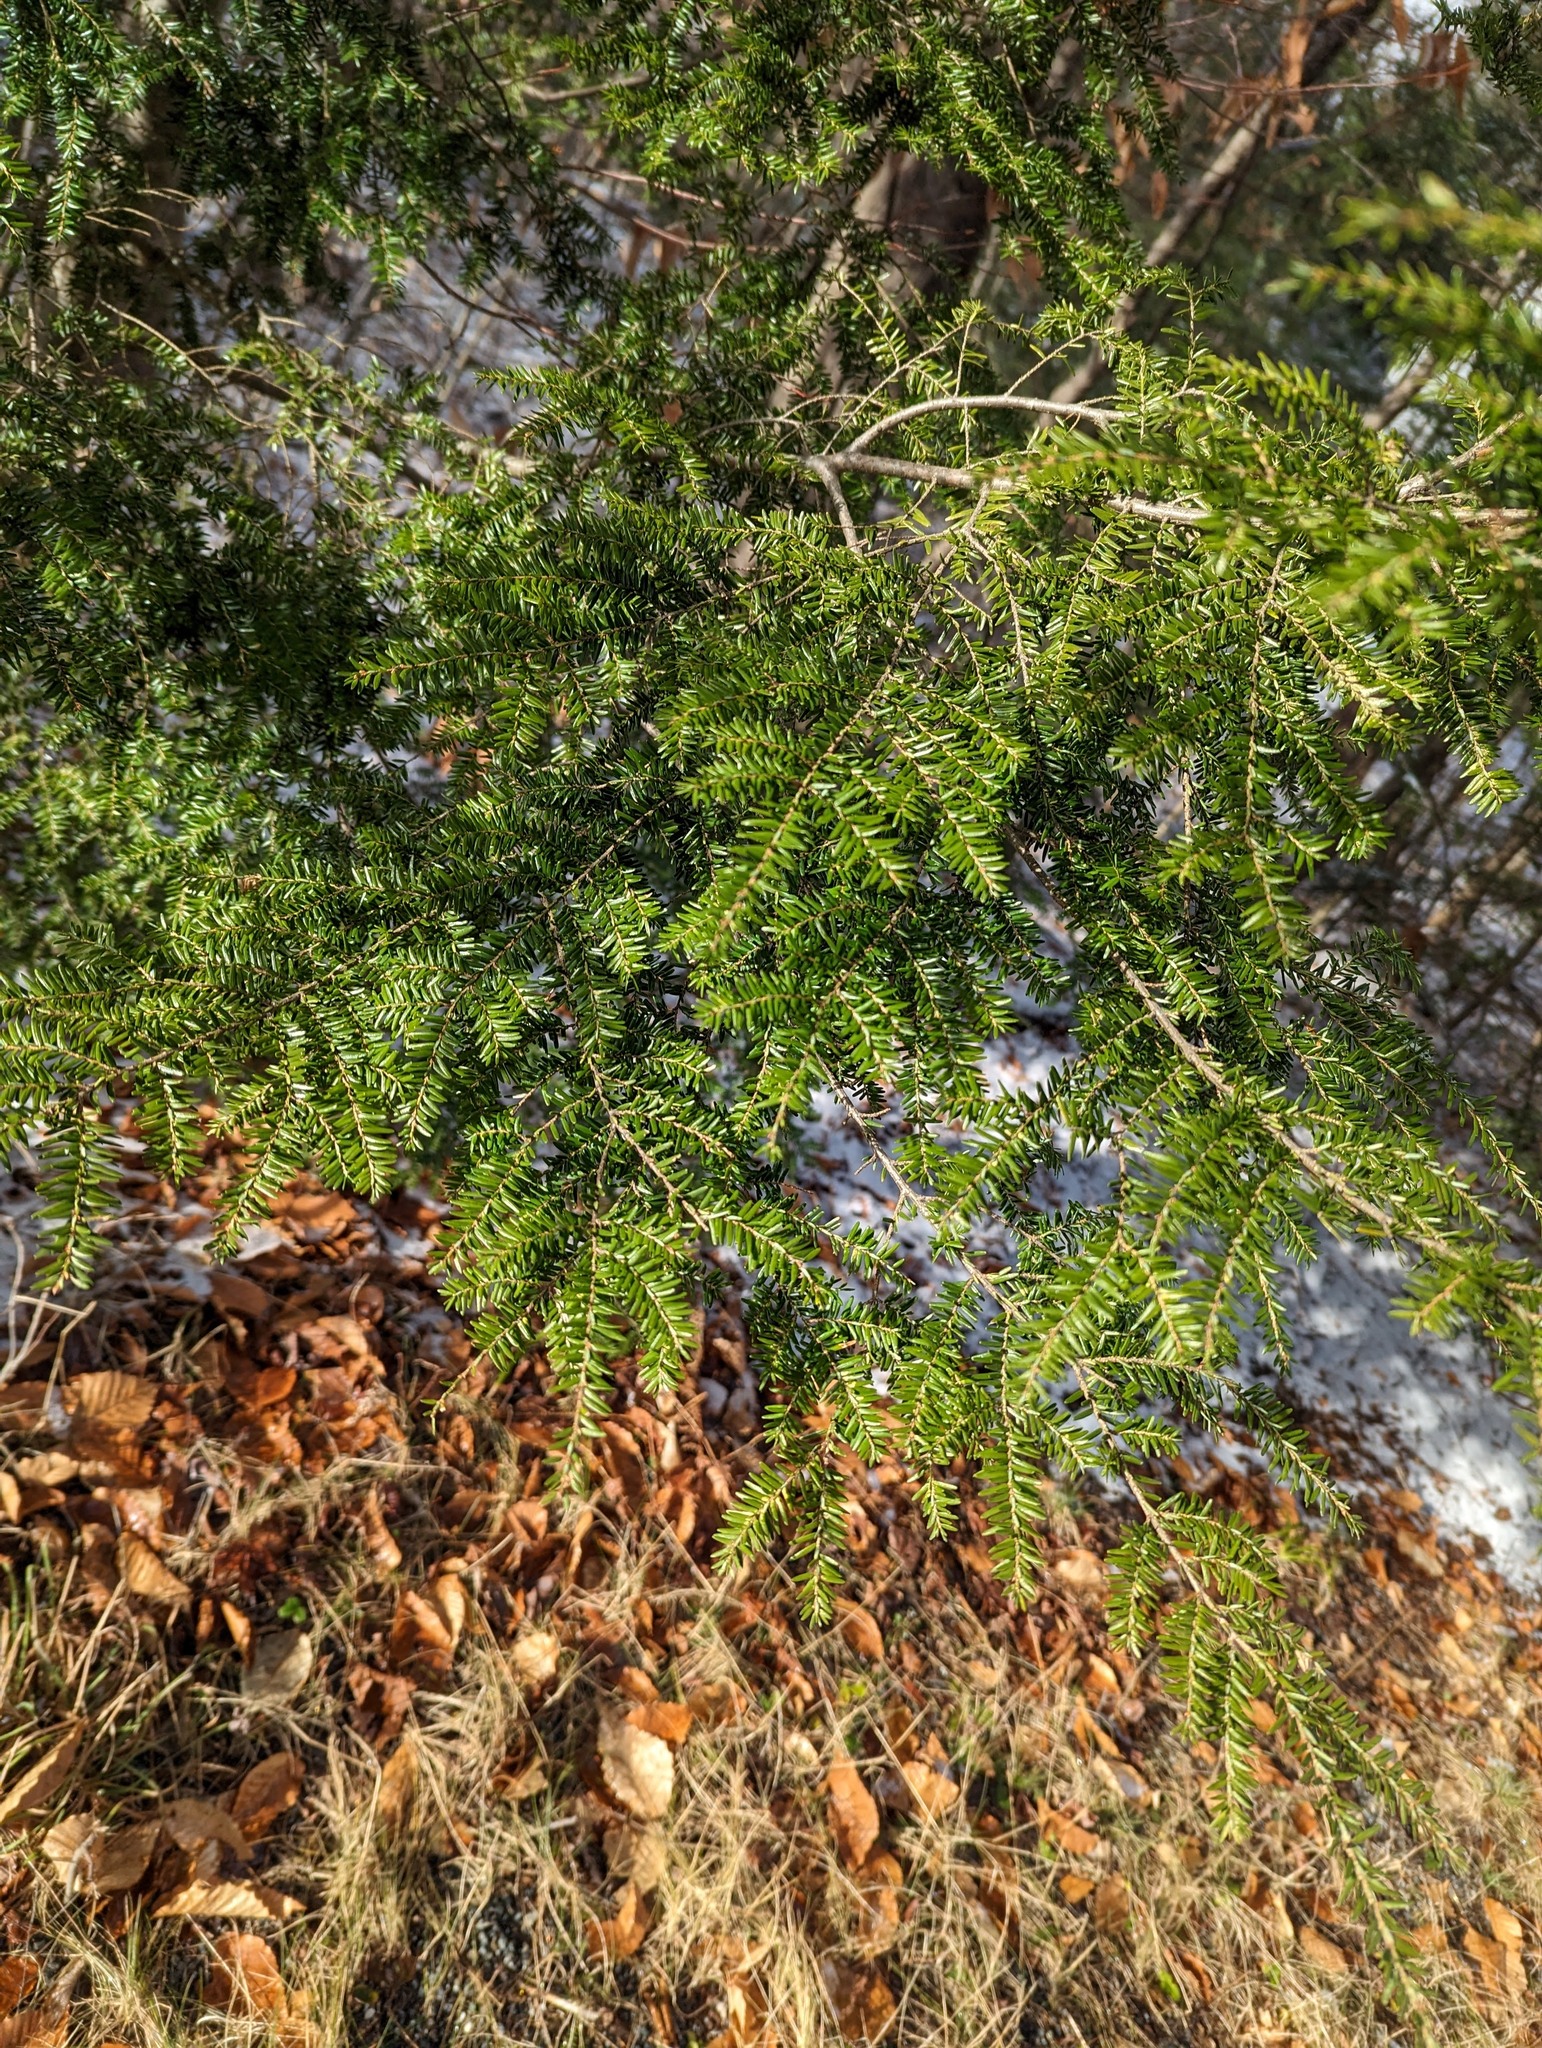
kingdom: Plantae
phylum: Tracheophyta
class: Pinopsida
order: Pinales
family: Pinaceae
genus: Tsuga
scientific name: Tsuga canadensis
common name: Eastern hemlock
